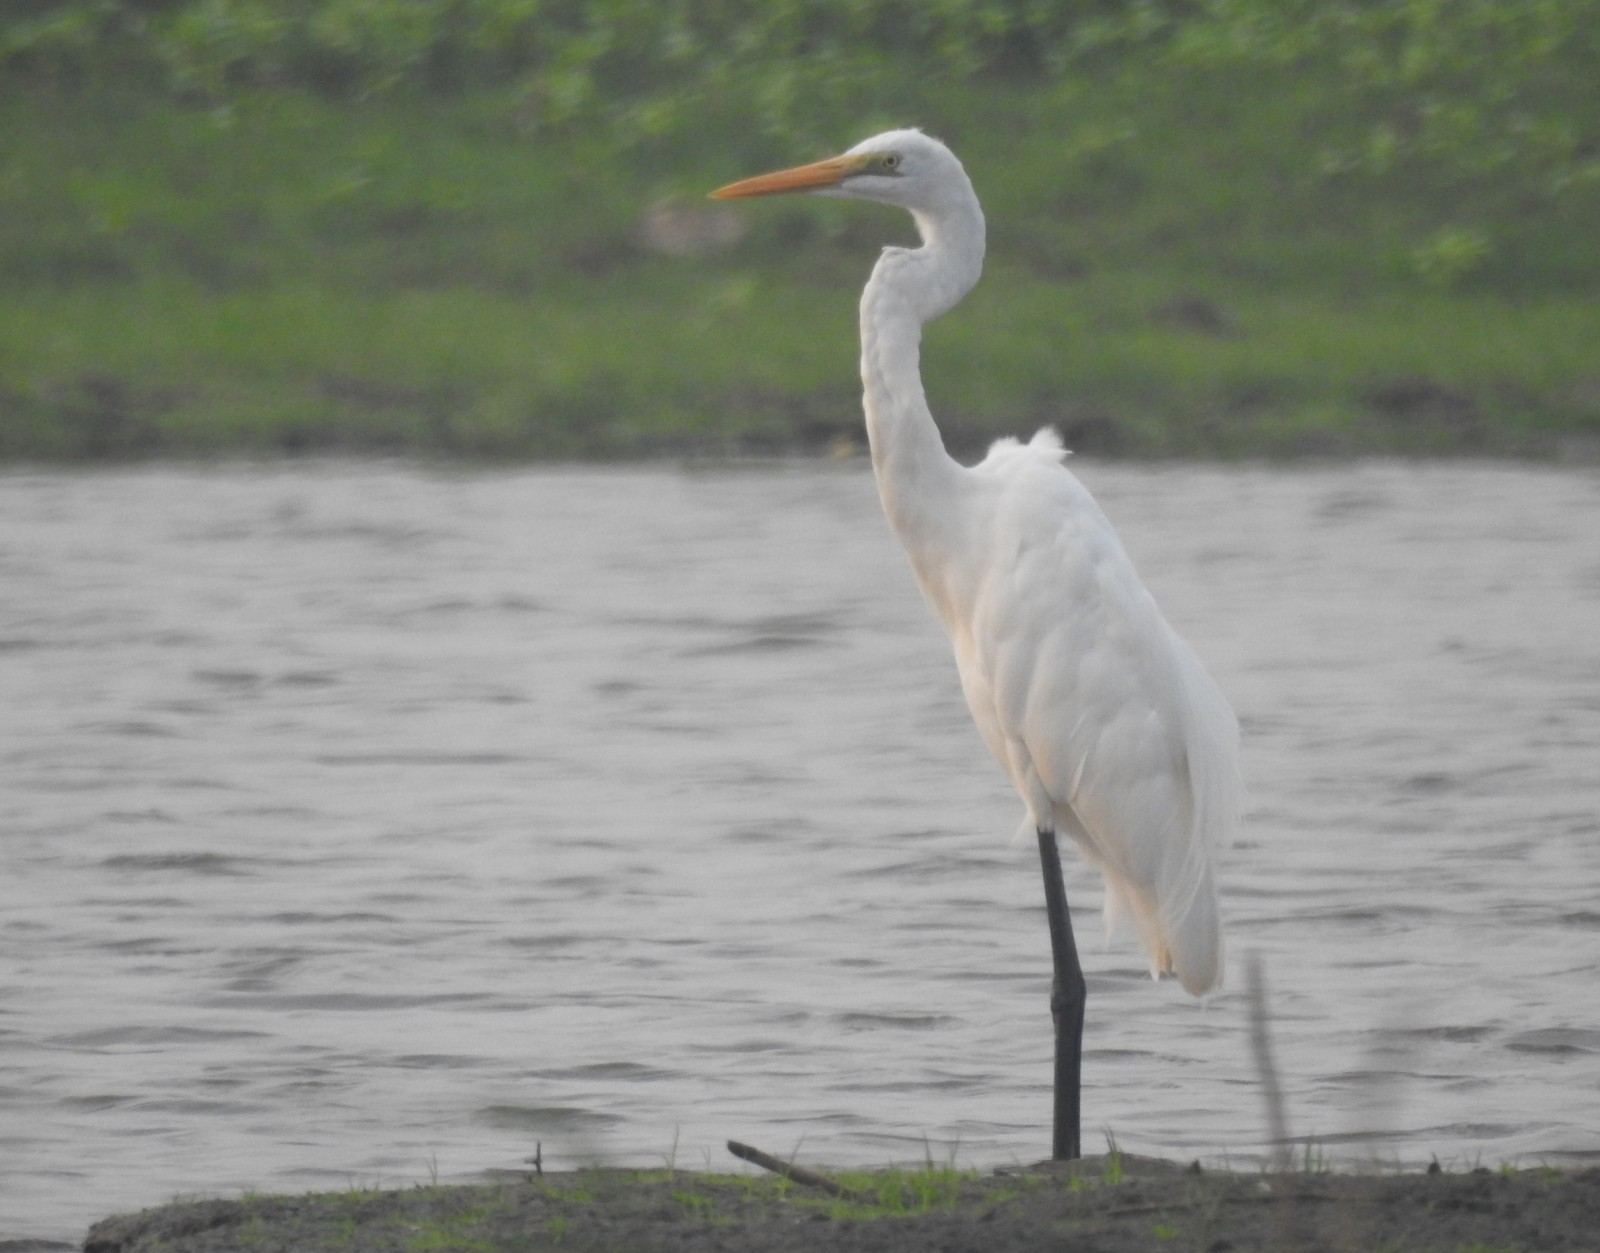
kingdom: Animalia
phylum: Chordata
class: Aves
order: Pelecaniformes
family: Ardeidae
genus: Ardea
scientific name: Ardea alba
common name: Great egret
